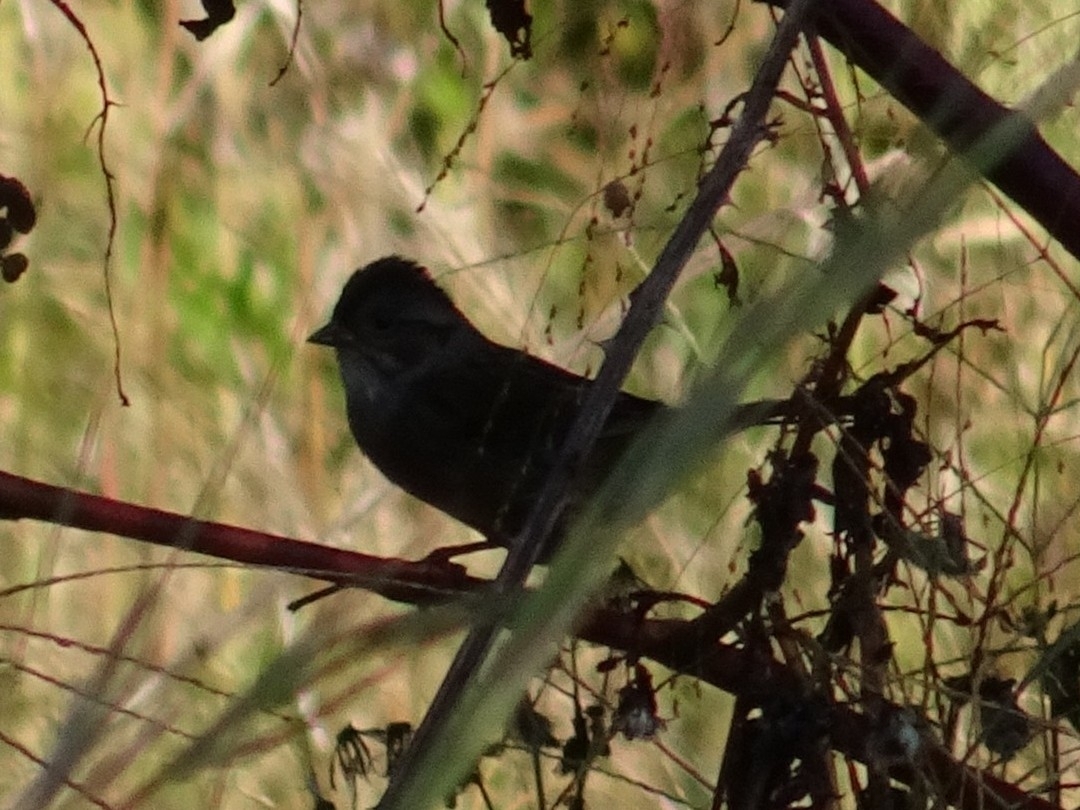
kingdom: Animalia
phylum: Chordata
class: Aves
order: Passeriformes
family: Passerellidae
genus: Melospiza
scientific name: Melospiza georgiana
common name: Swamp sparrow
